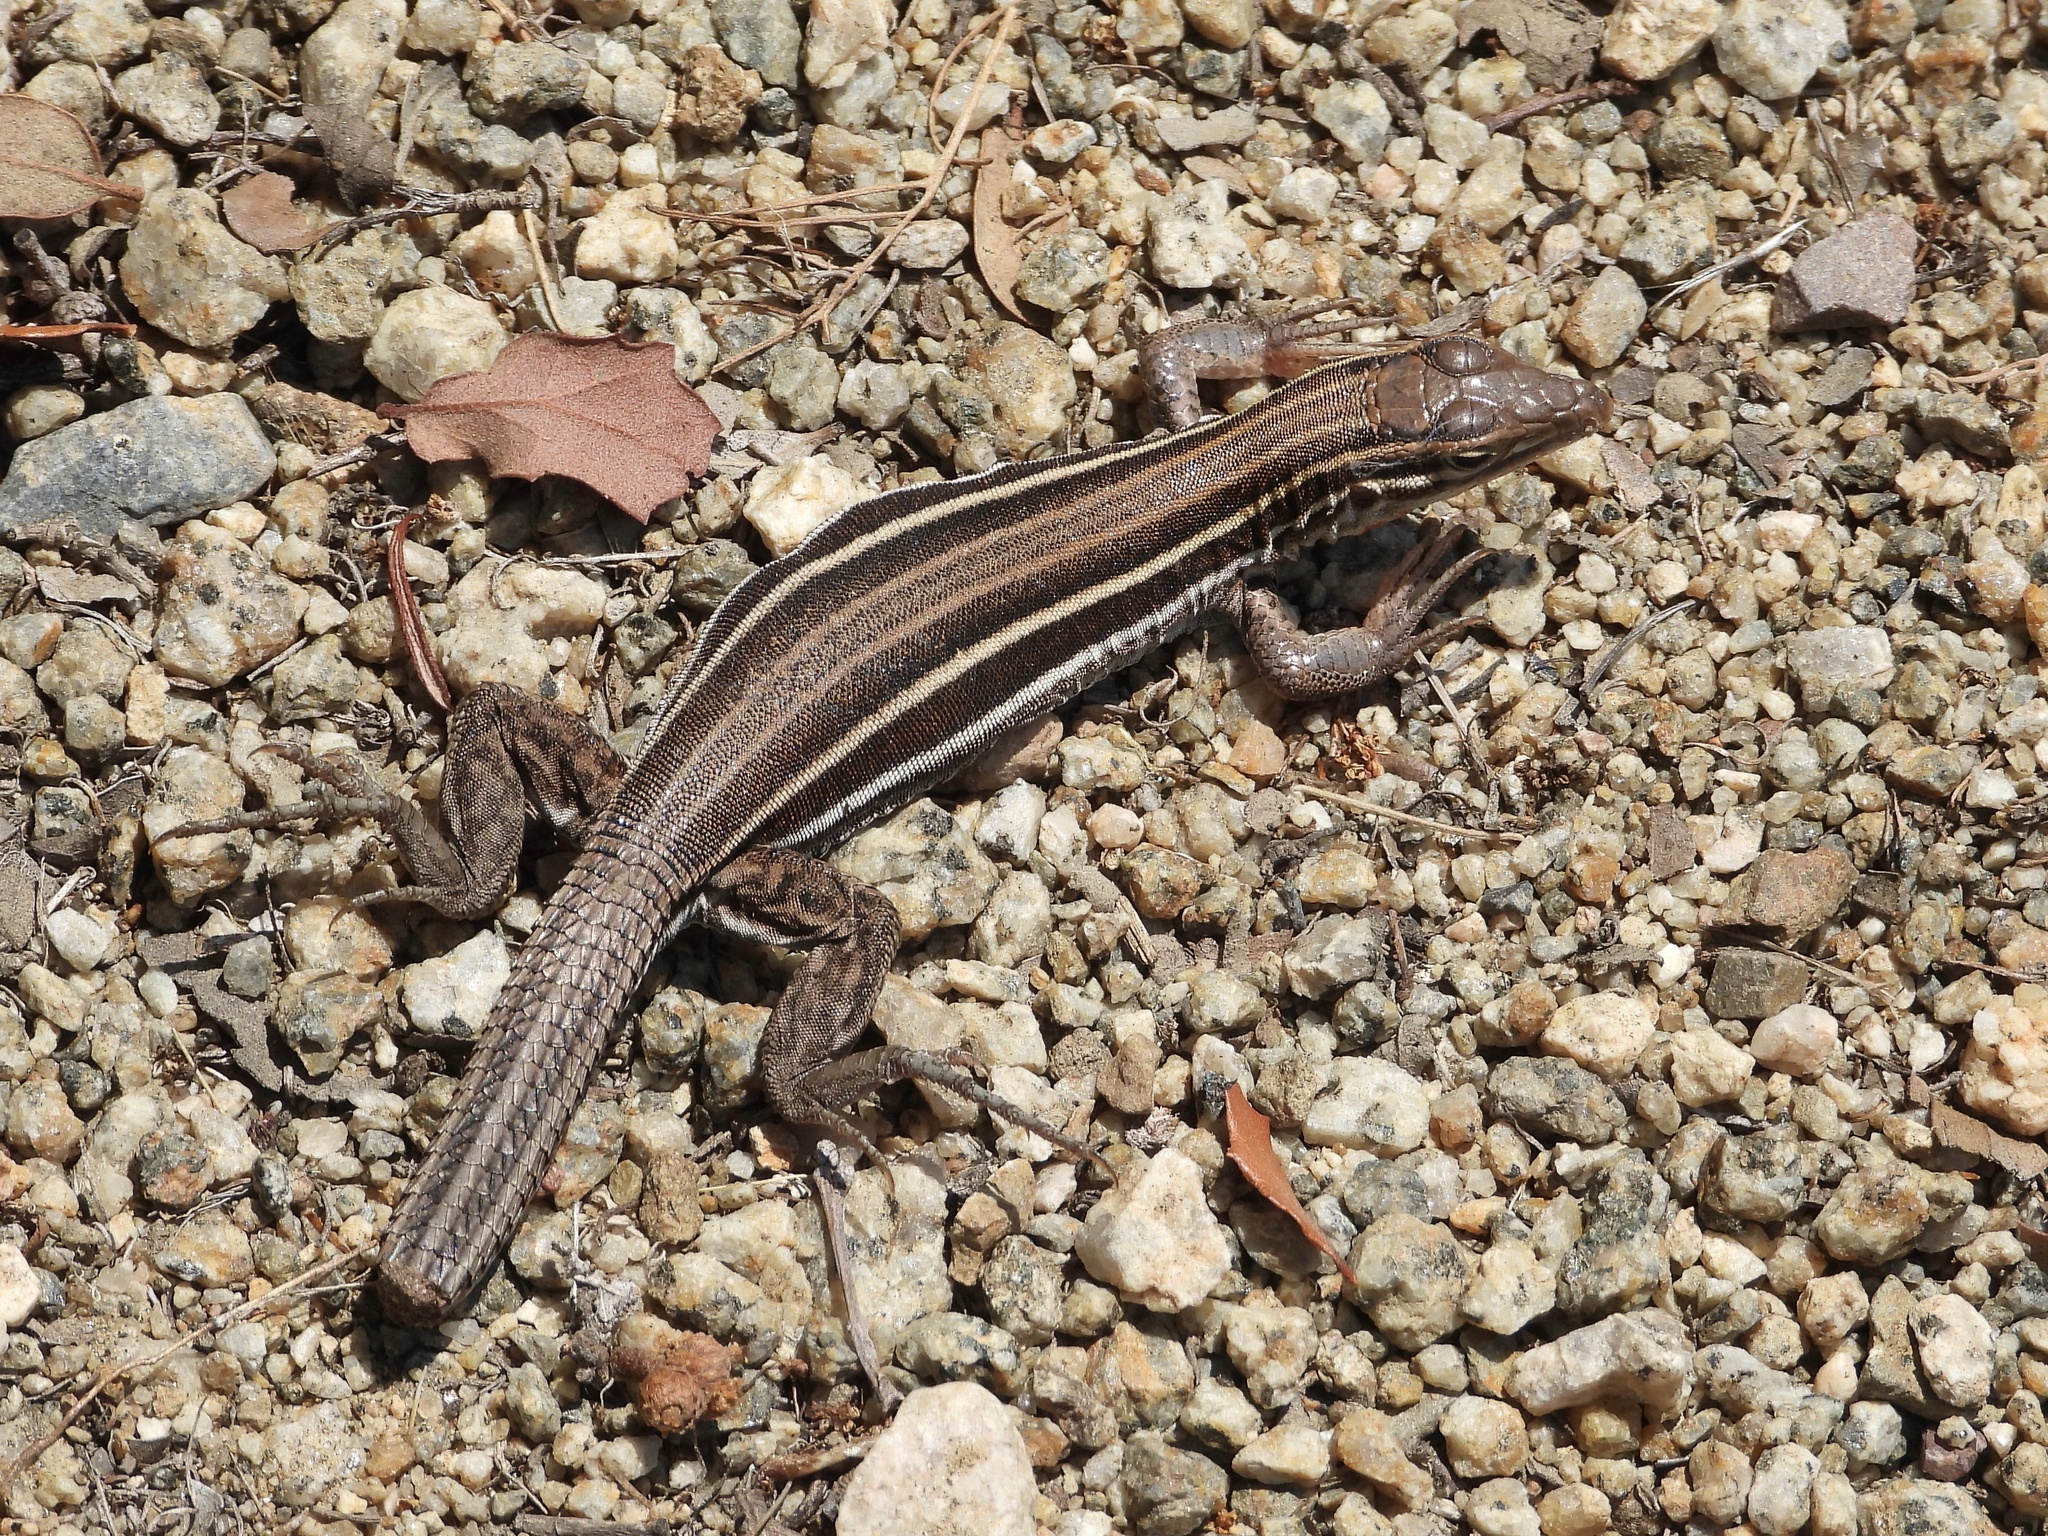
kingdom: Animalia
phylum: Chordata
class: Squamata
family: Teiidae
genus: Aspidoscelis
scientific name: Aspidoscelis hyperythrus
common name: Orange-throated race-runner
